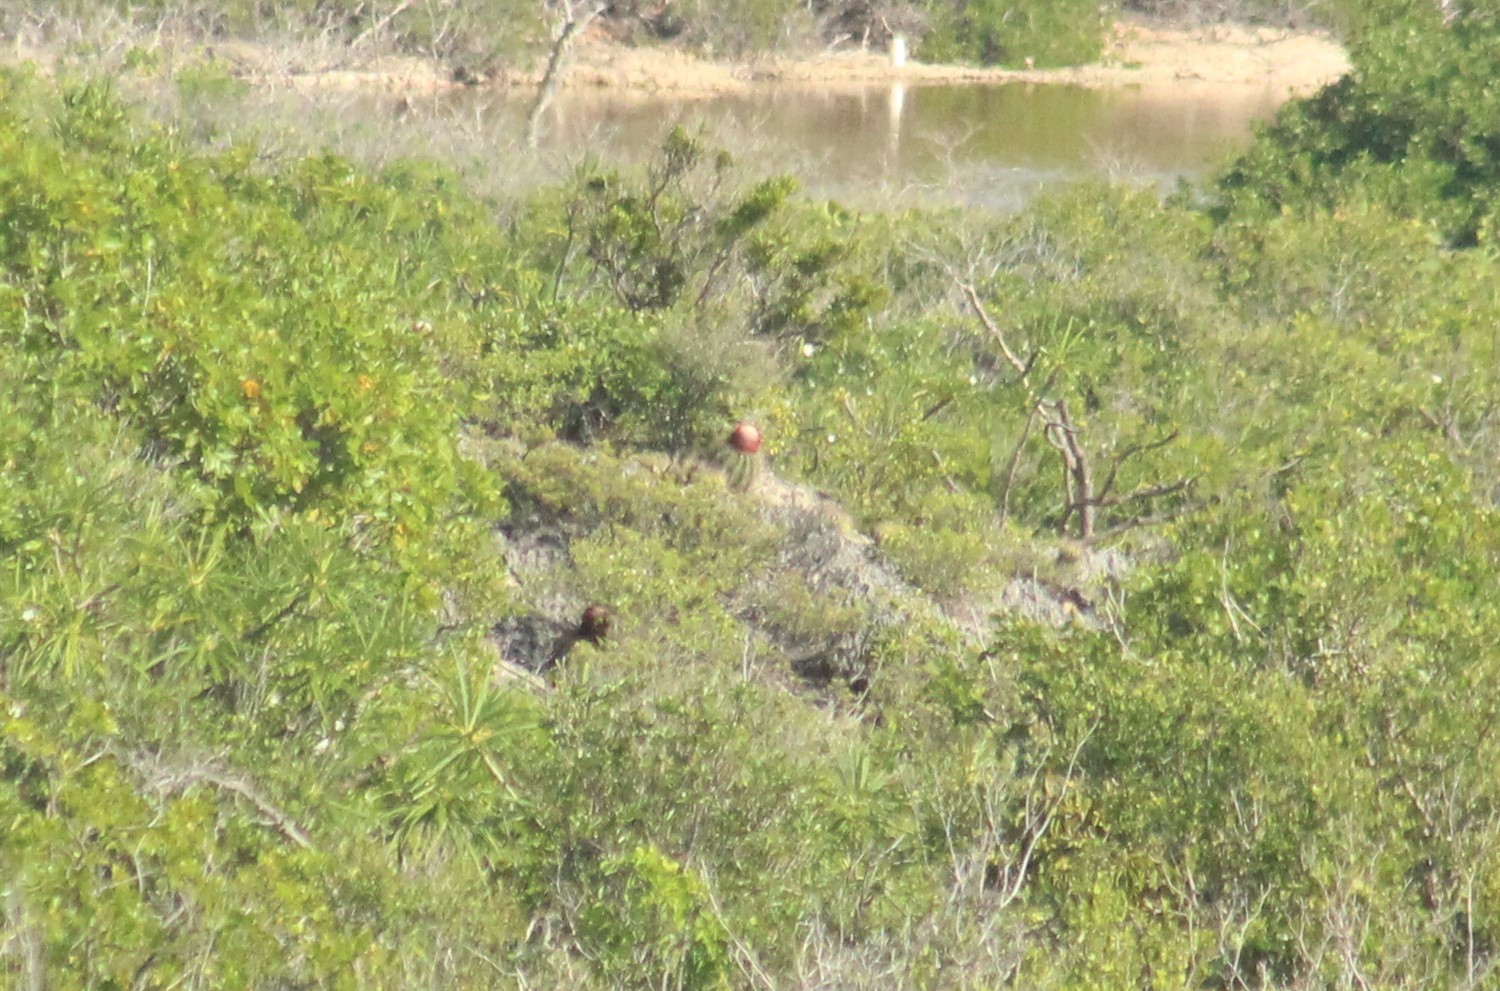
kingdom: Plantae
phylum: Tracheophyta
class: Magnoliopsida
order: Caryophyllales
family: Cactaceae
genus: Melocactus
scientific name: Melocactus intortus
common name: Barrel cactus
